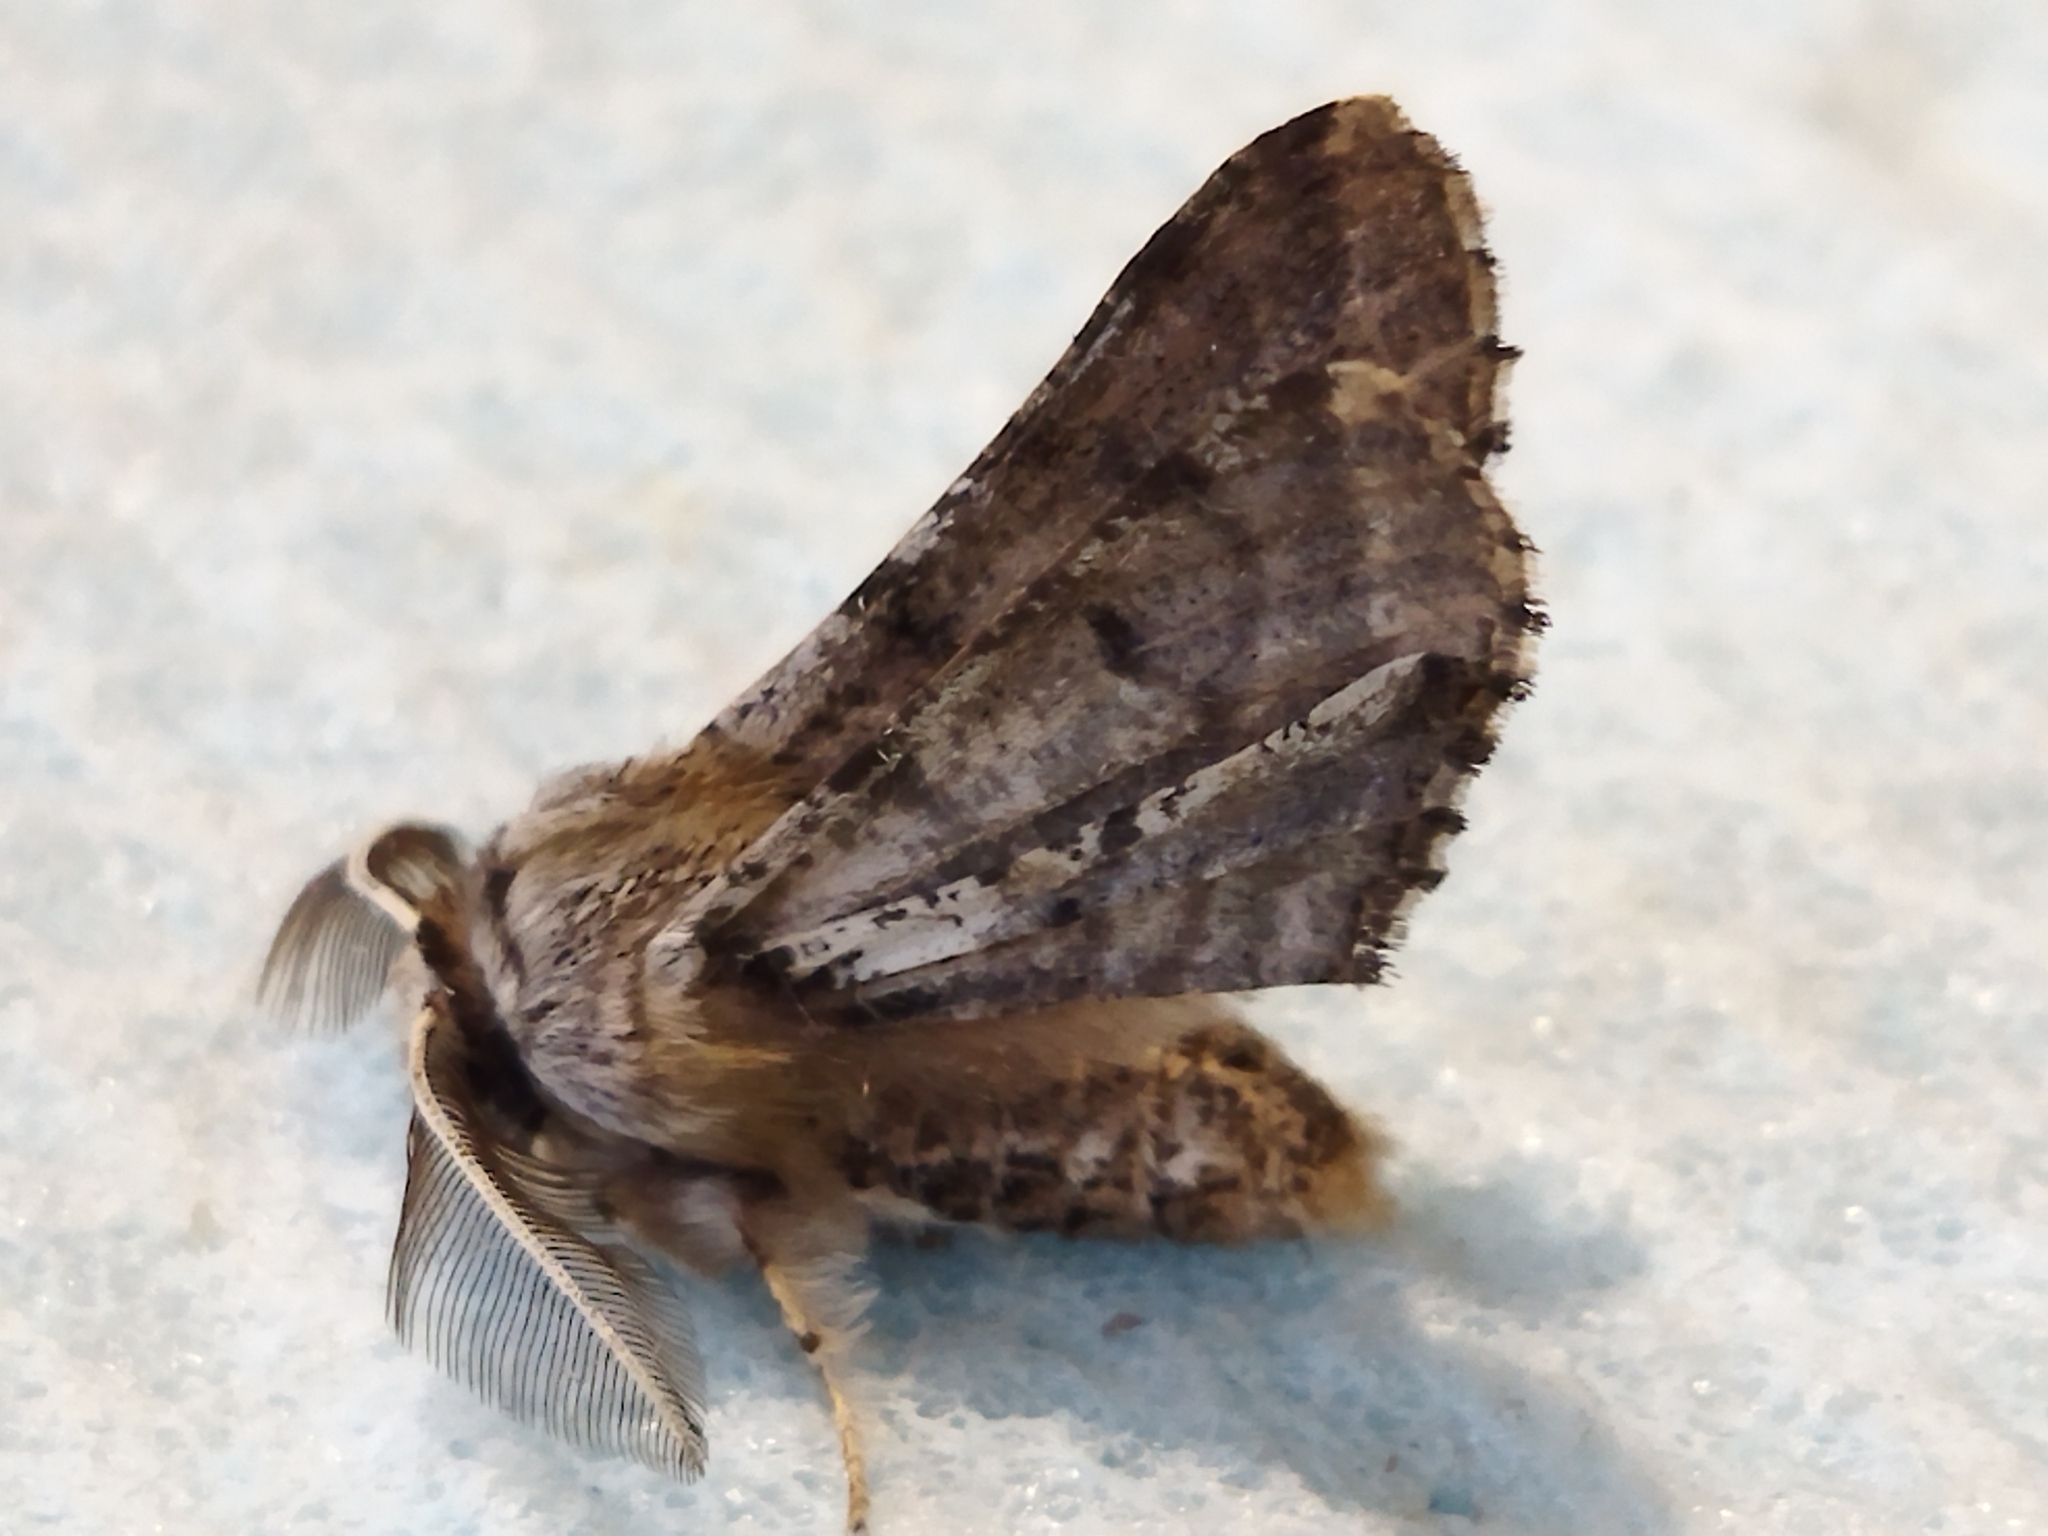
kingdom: Animalia
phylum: Arthropoda
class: Insecta
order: Lepidoptera
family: Geometridae
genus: Apochima
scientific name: Apochima flabellaria
